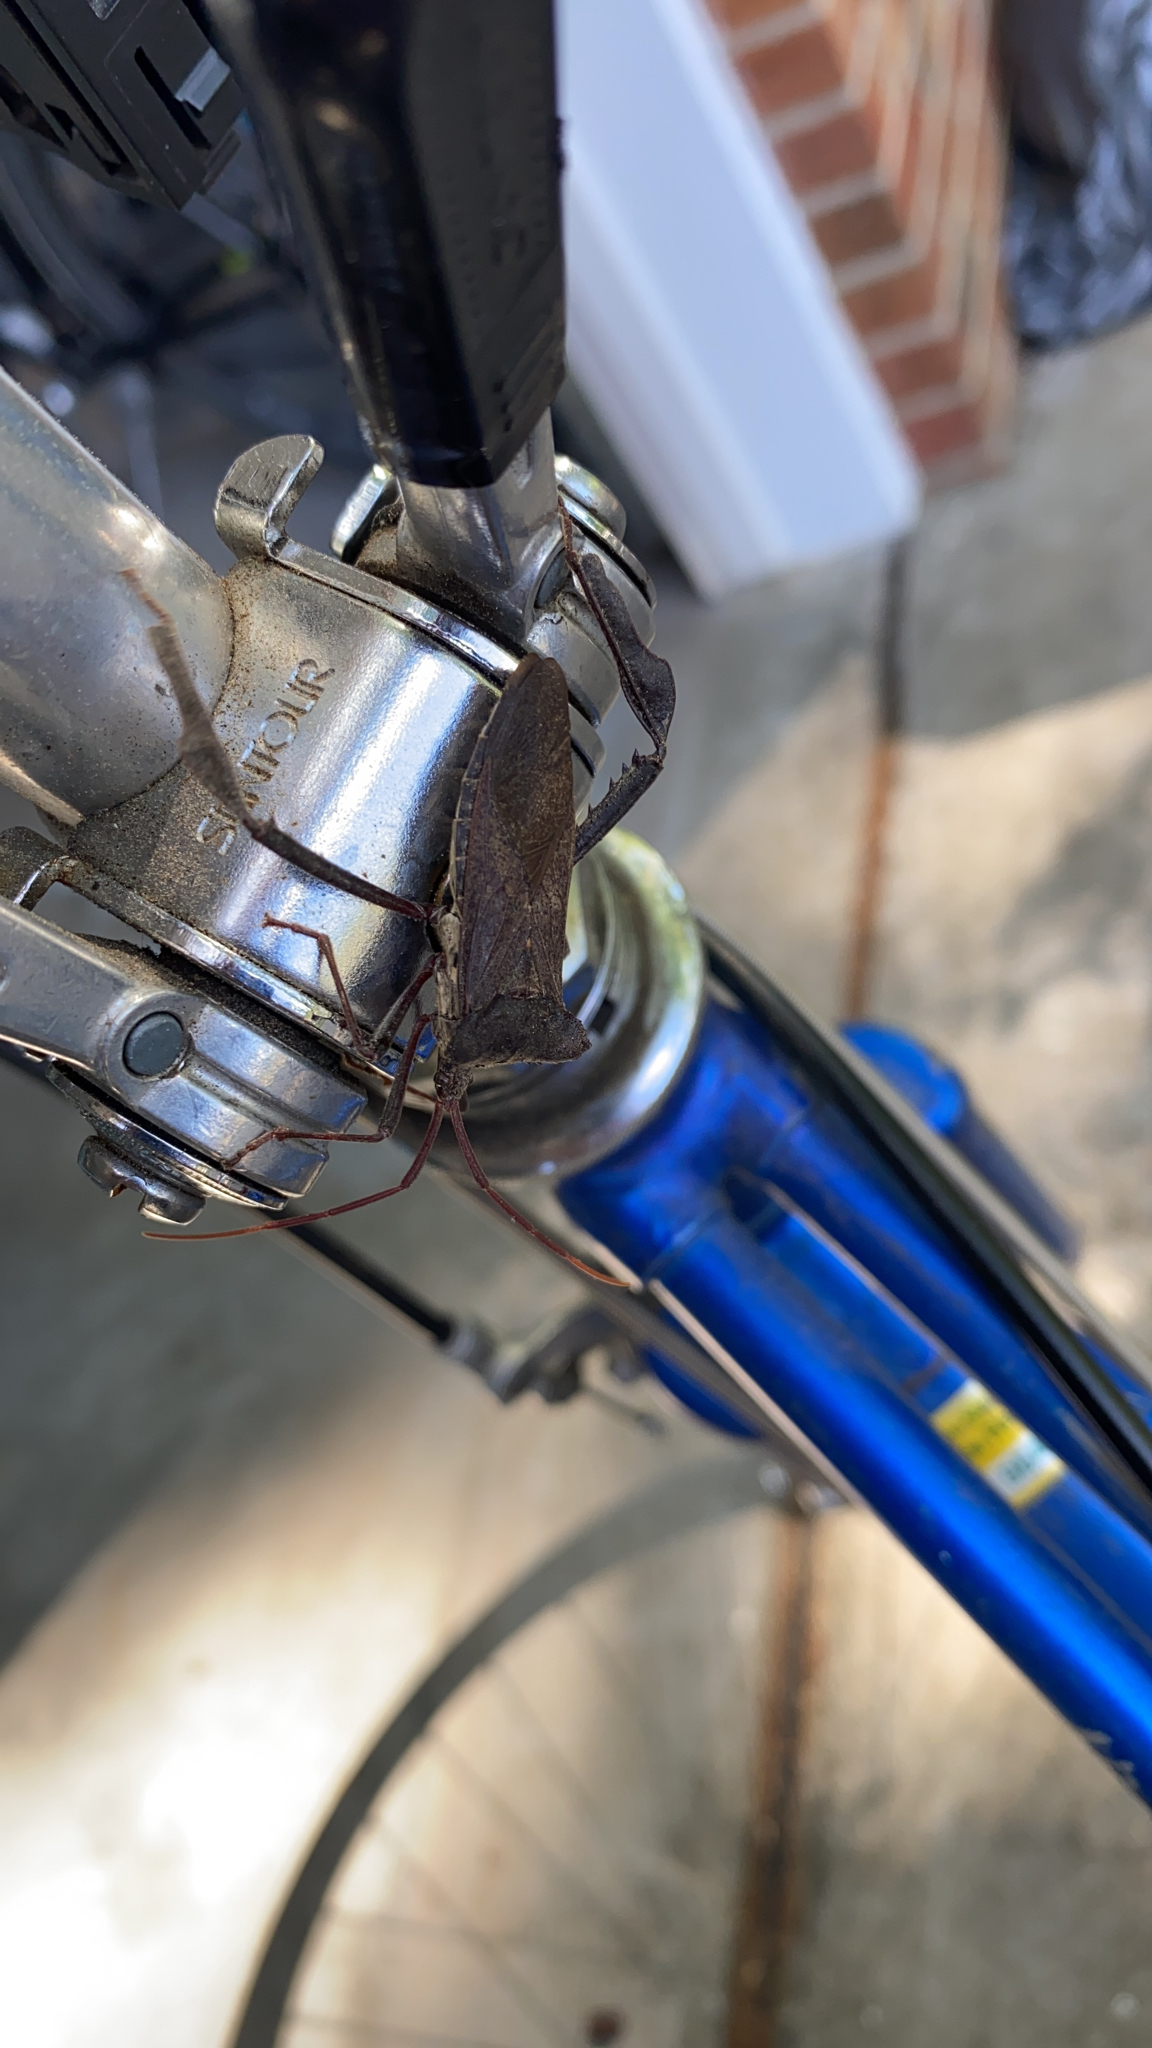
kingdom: Animalia
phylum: Arthropoda
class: Insecta
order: Hemiptera
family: Coreidae
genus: Acanthocephala
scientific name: Acanthocephala declivis
